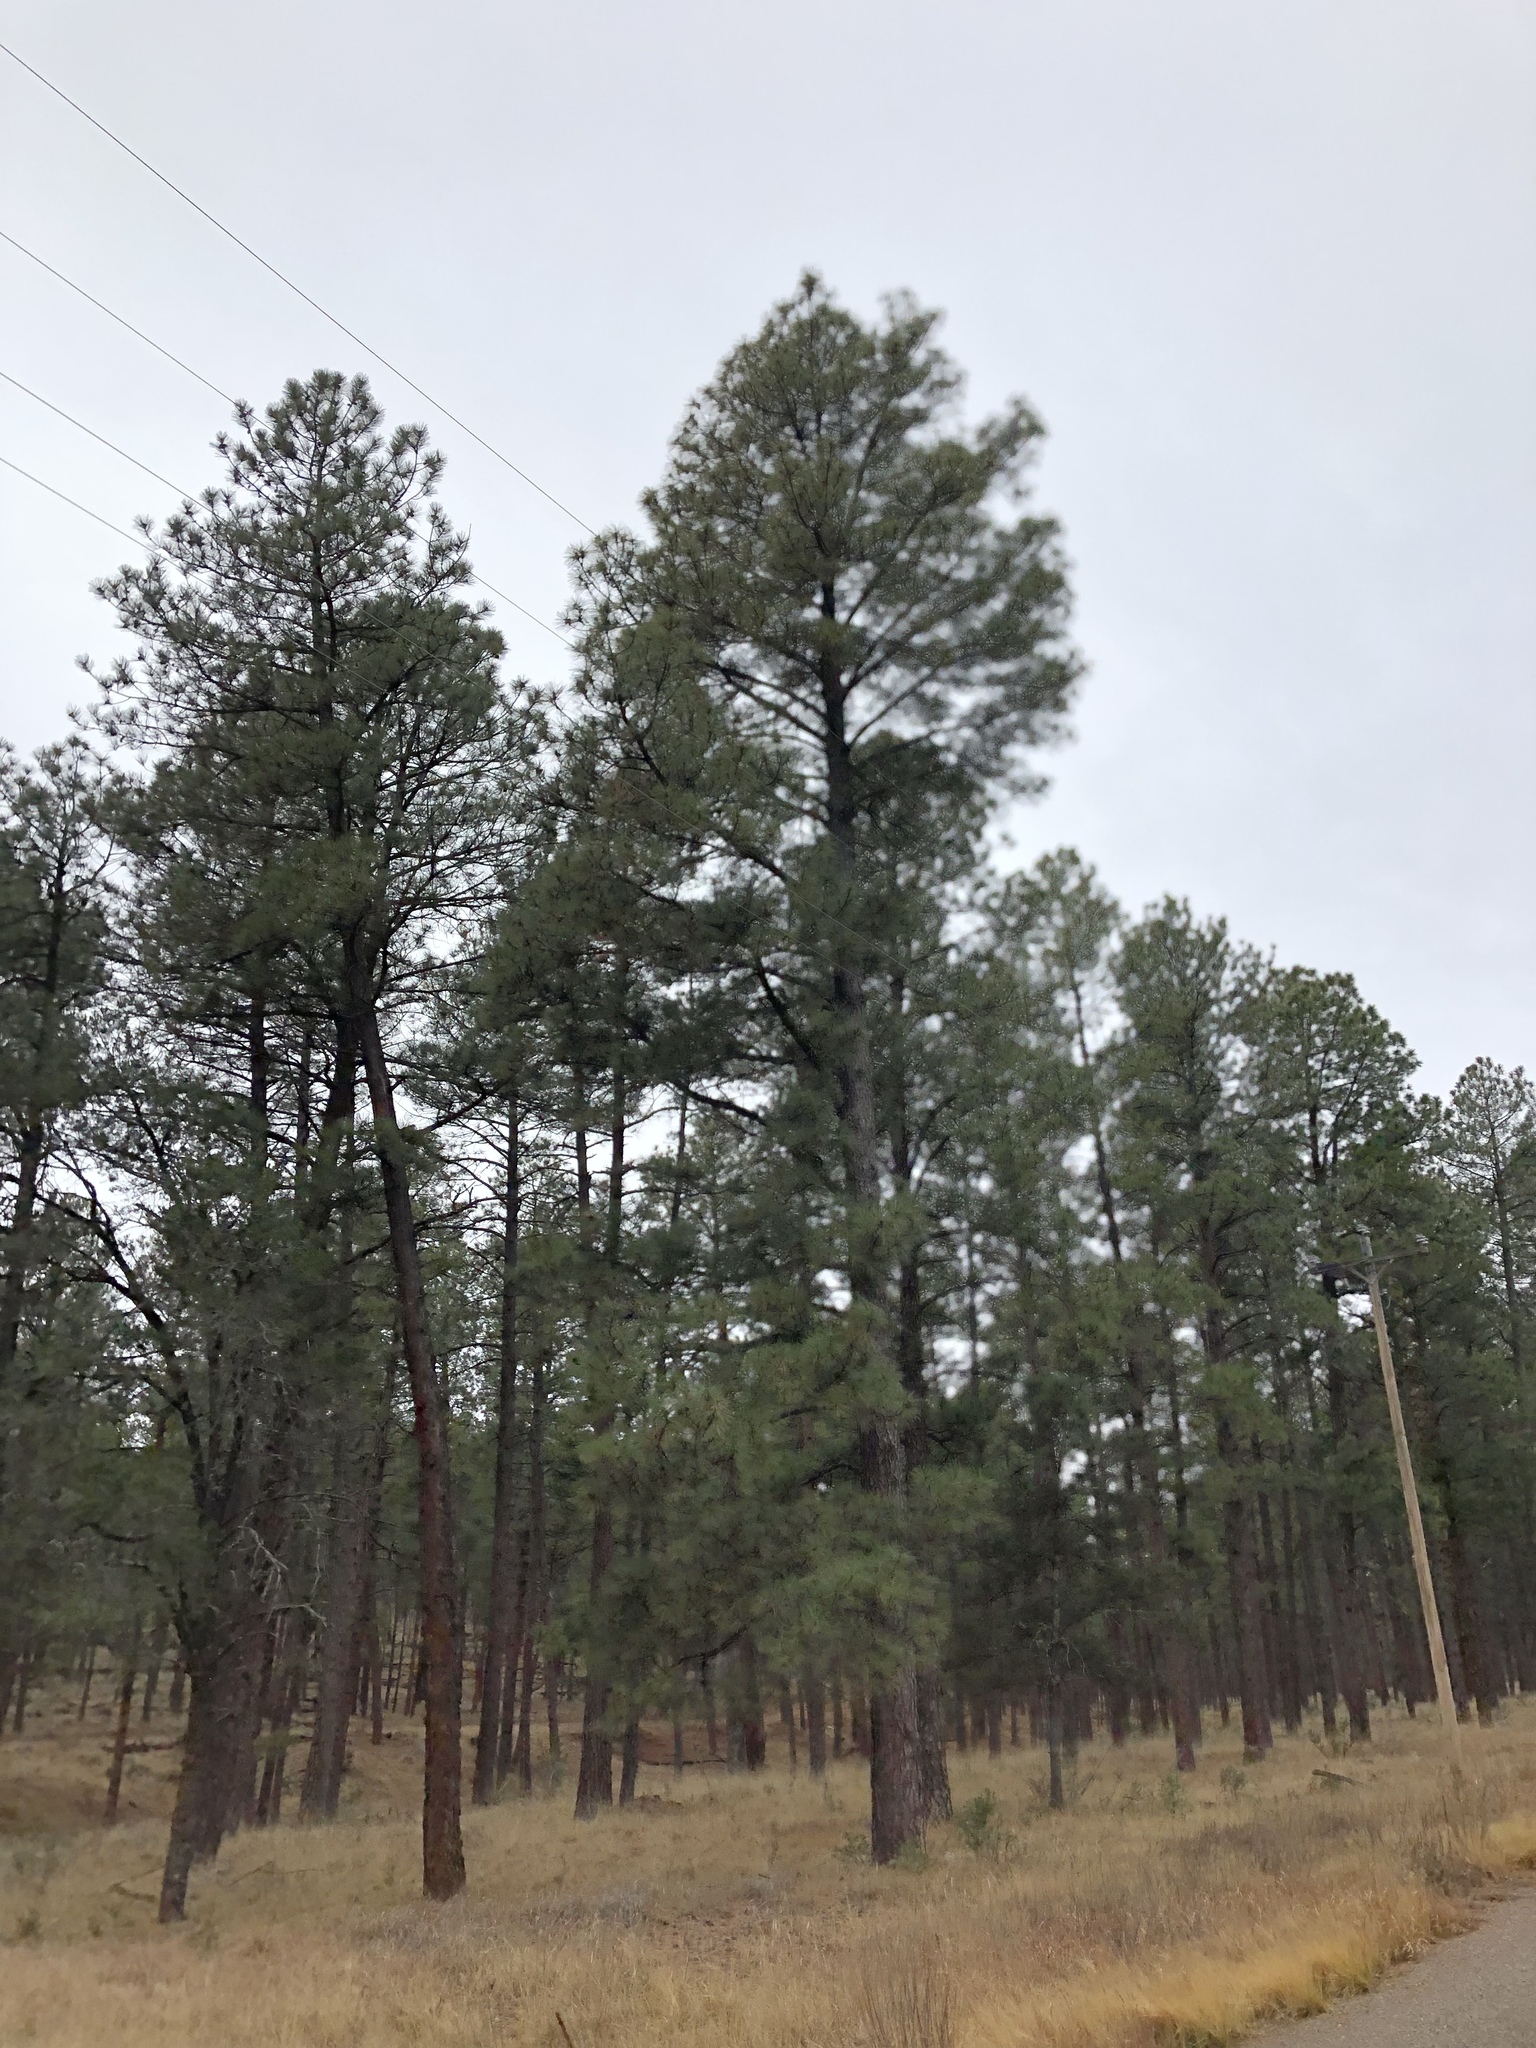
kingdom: Plantae
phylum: Tracheophyta
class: Pinopsida
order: Pinales
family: Pinaceae
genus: Pinus
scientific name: Pinus ponderosa
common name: Western yellow-pine
